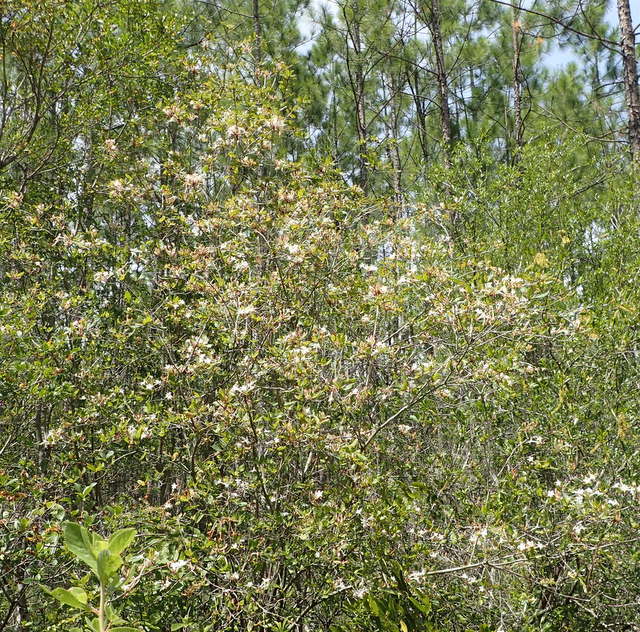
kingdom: Plantae
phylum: Tracheophyta
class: Magnoliopsida
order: Ericales
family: Ericaceae
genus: Rhododendron
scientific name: Rhododendron serrulatum
